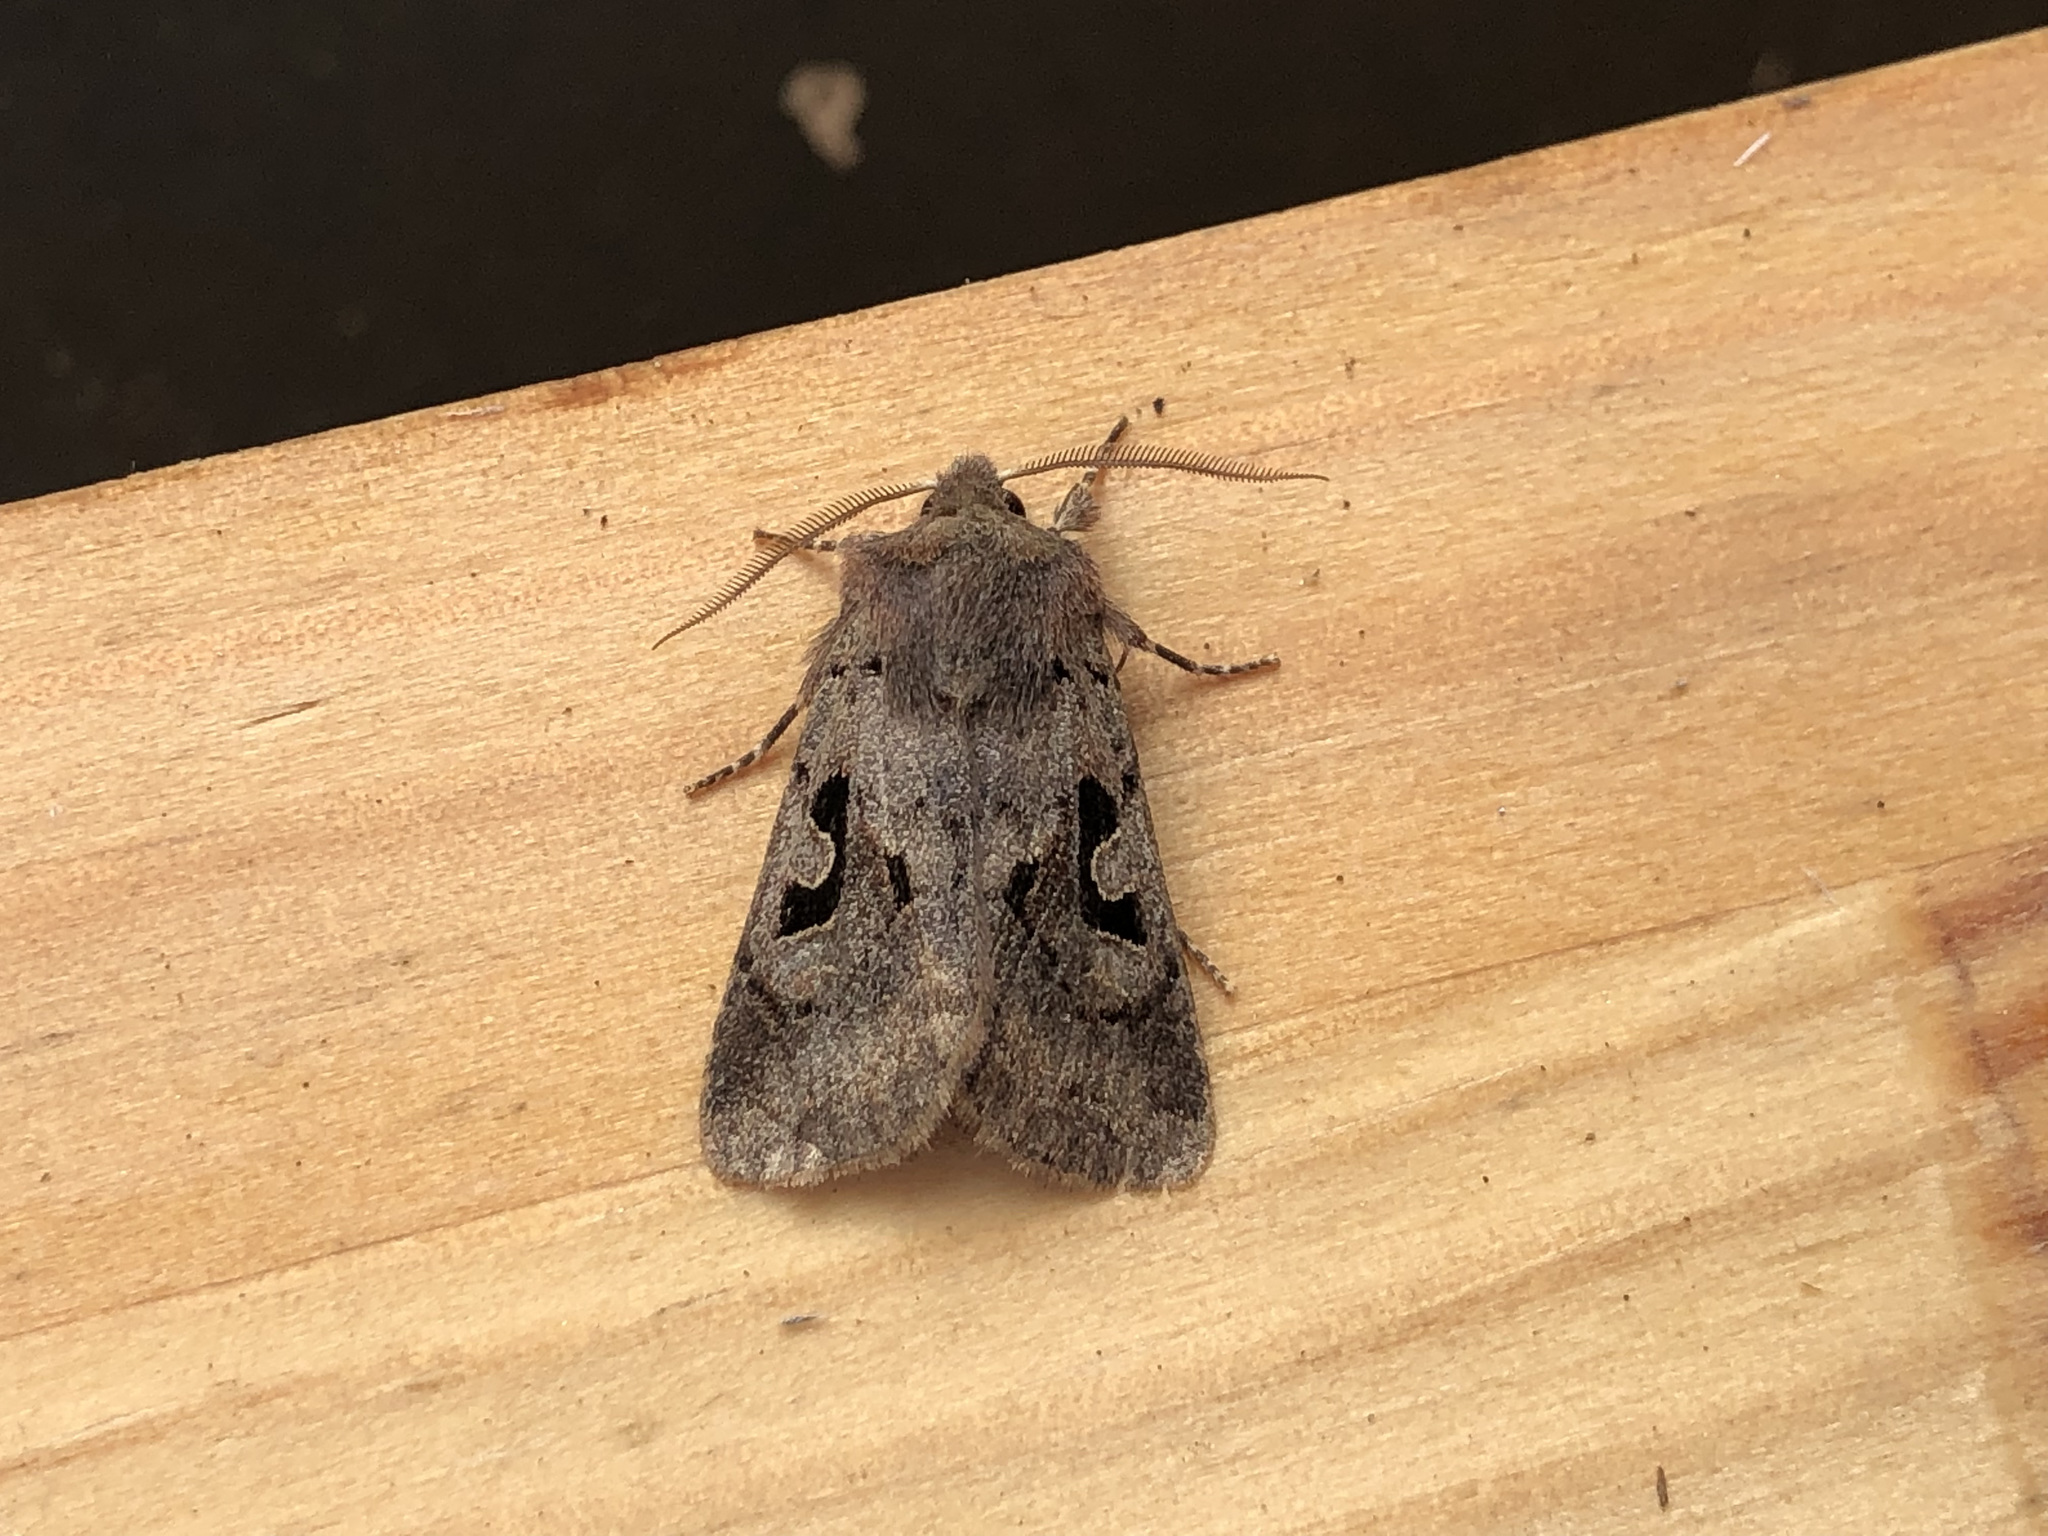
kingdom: Animalia
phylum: Arthropoda
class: Insecta
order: Lepidoptera
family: Noctuidae
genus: Orthosia
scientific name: Orthosia gothica
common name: Hebrew character
